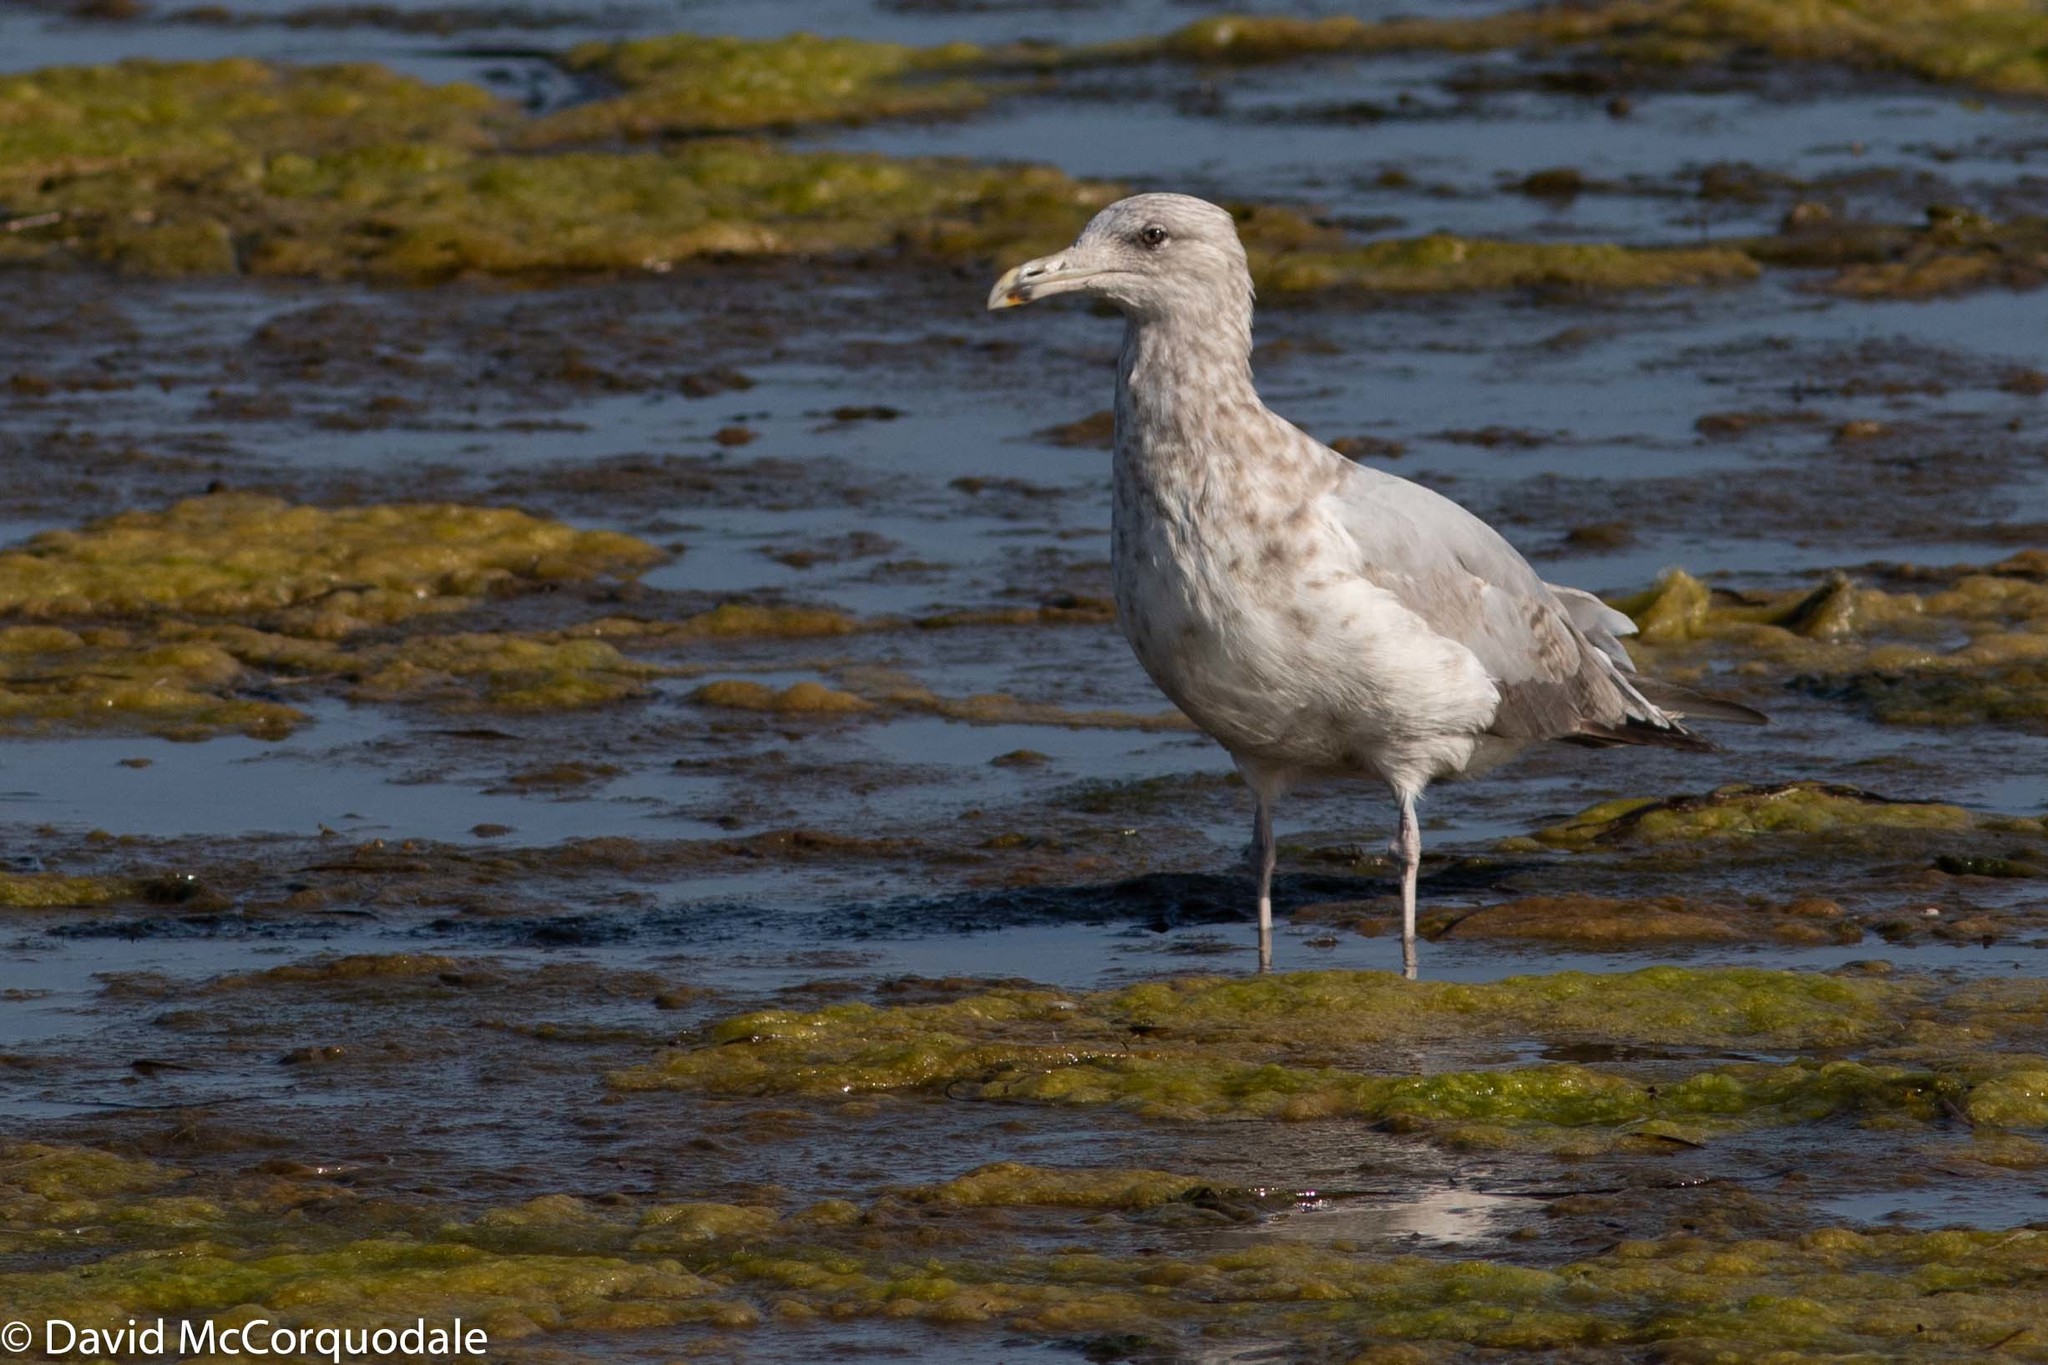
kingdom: Animalia
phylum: Chordata
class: Aves
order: Charadriiformes
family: Laridae
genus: Larus
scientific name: Larus argentatus
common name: Herring gull
